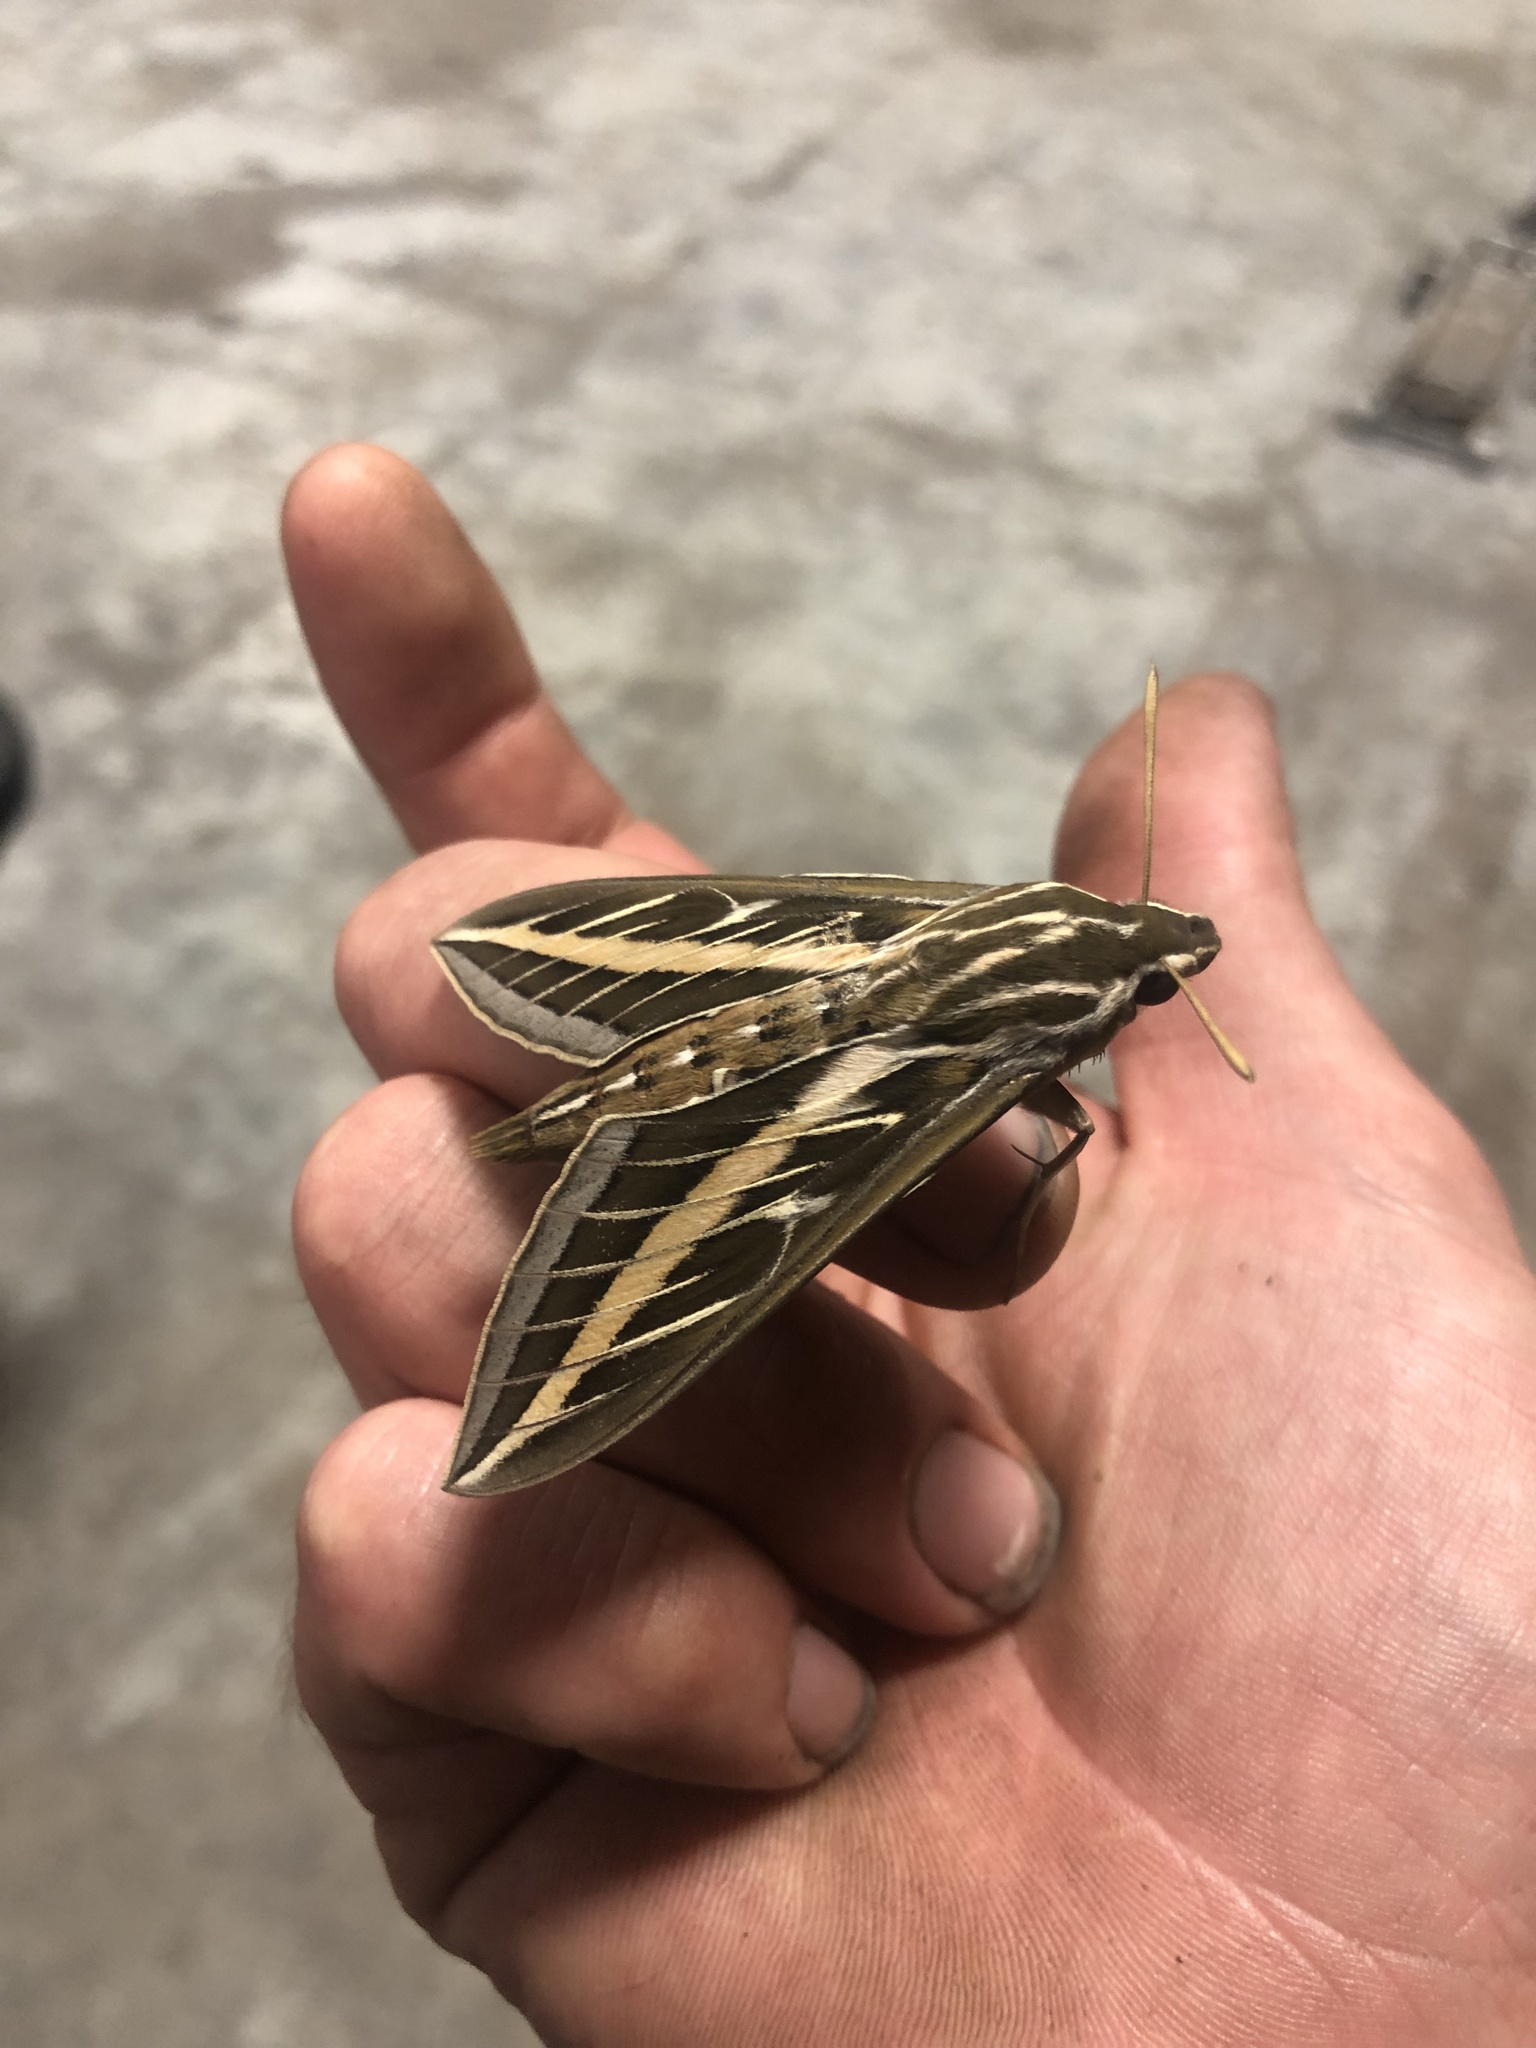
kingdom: Animalia
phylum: Arthropoda
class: Insecta
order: Lepidoptera
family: Sphingidae
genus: Hyles
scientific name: Hyles lineata
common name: White-lined sphinx
